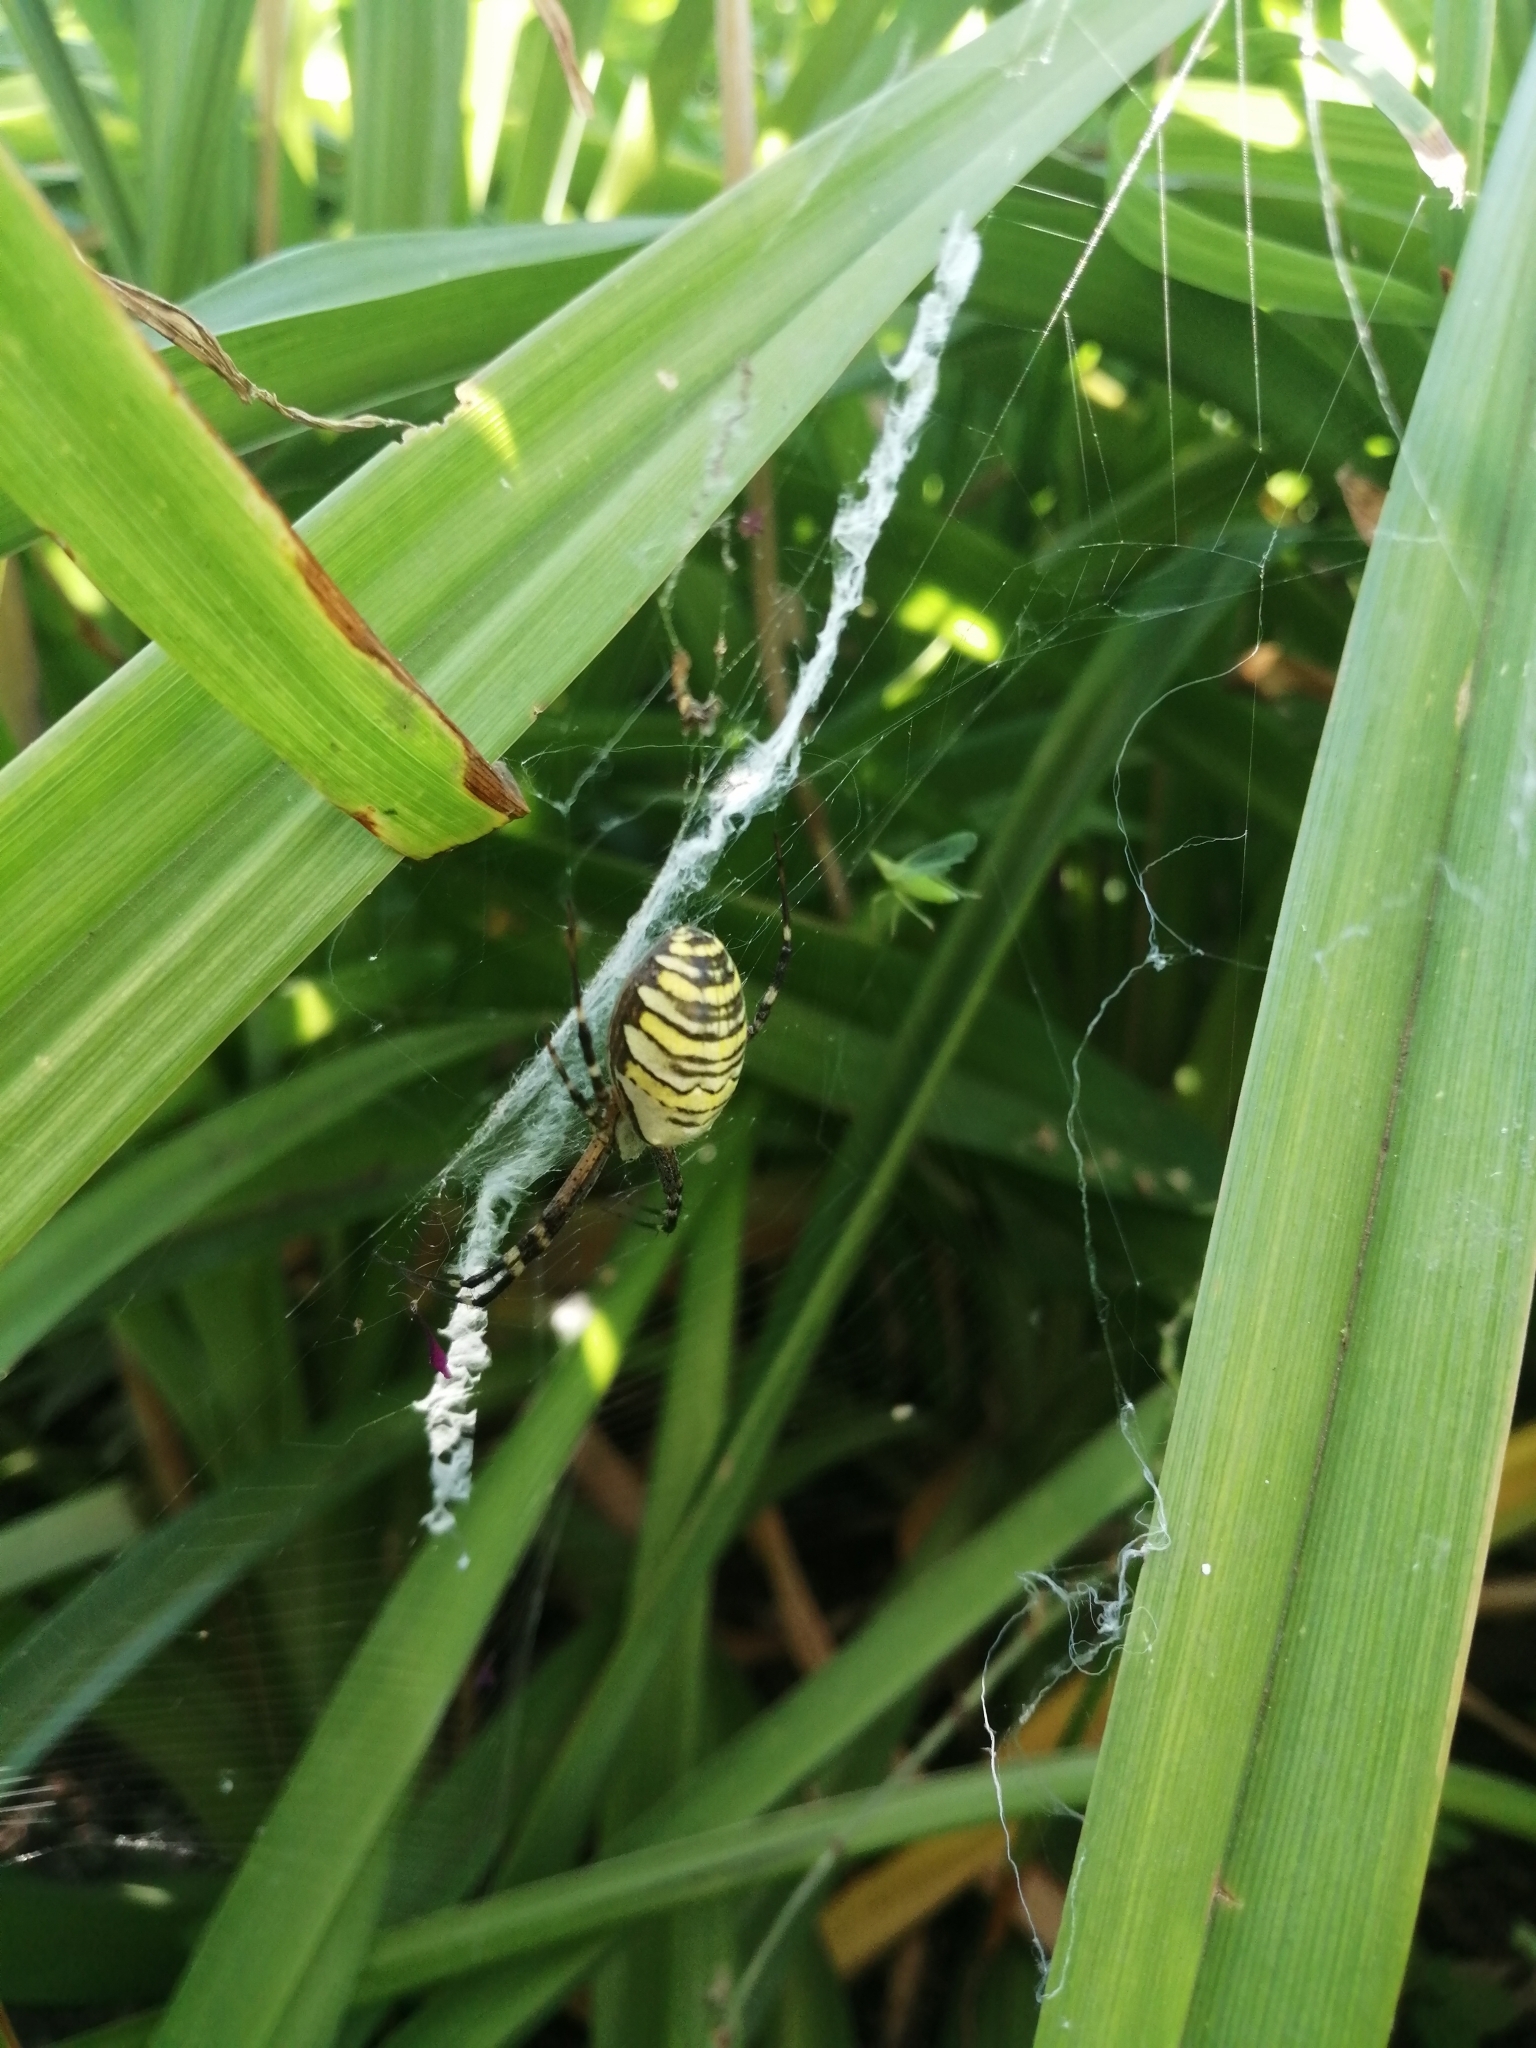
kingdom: Animalia
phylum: Arthropoda
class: Arachnida
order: Araneae
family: Araneidae
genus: Argiope
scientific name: Argiope bruennichi
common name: Wasp spider
